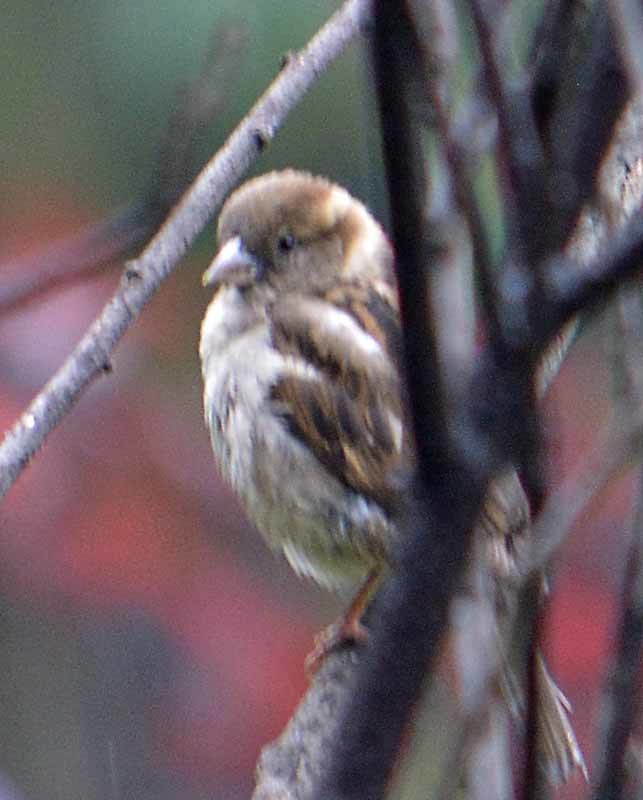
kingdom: Animalia
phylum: Chordata
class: Aves
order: Passeriformes
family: Passeridae
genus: Passer
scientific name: Passer domesticus
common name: House sparrow
